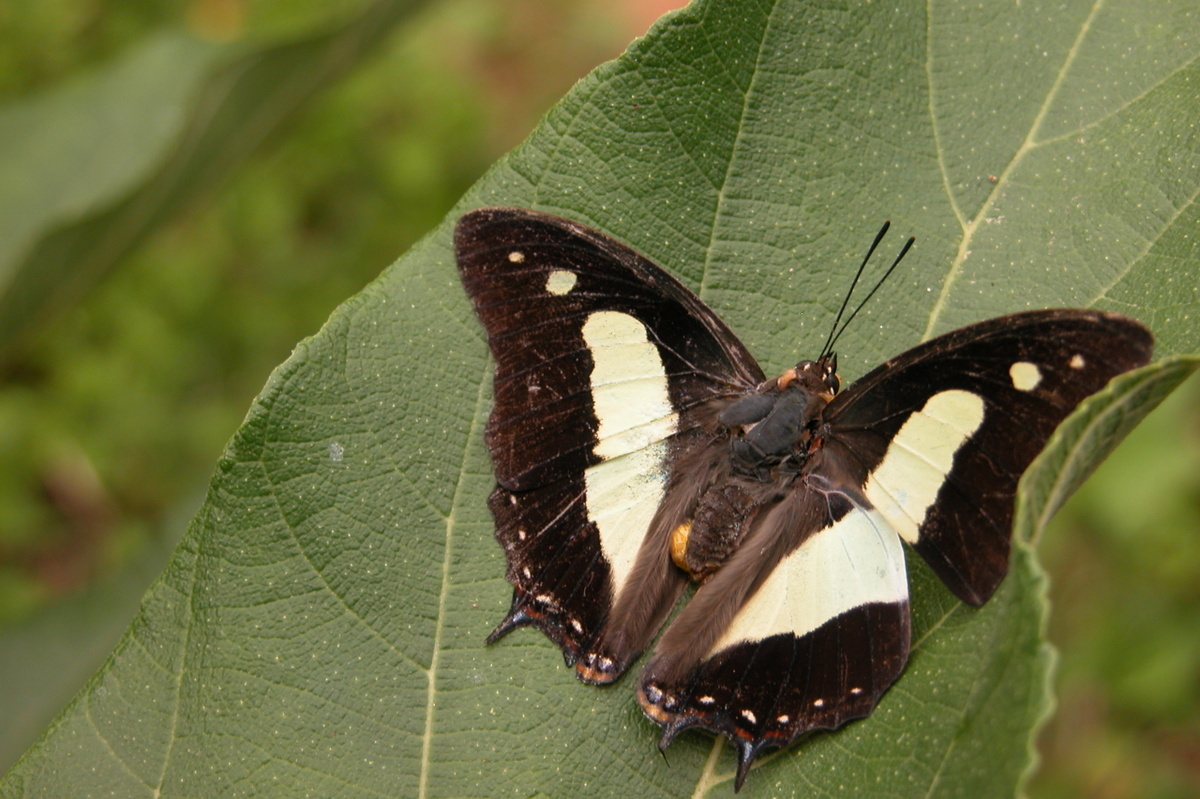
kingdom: Animalia
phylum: Arthropoda
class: Insecta
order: Lepidoptera
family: Nymphalidae
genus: Polyura
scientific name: Polyura
